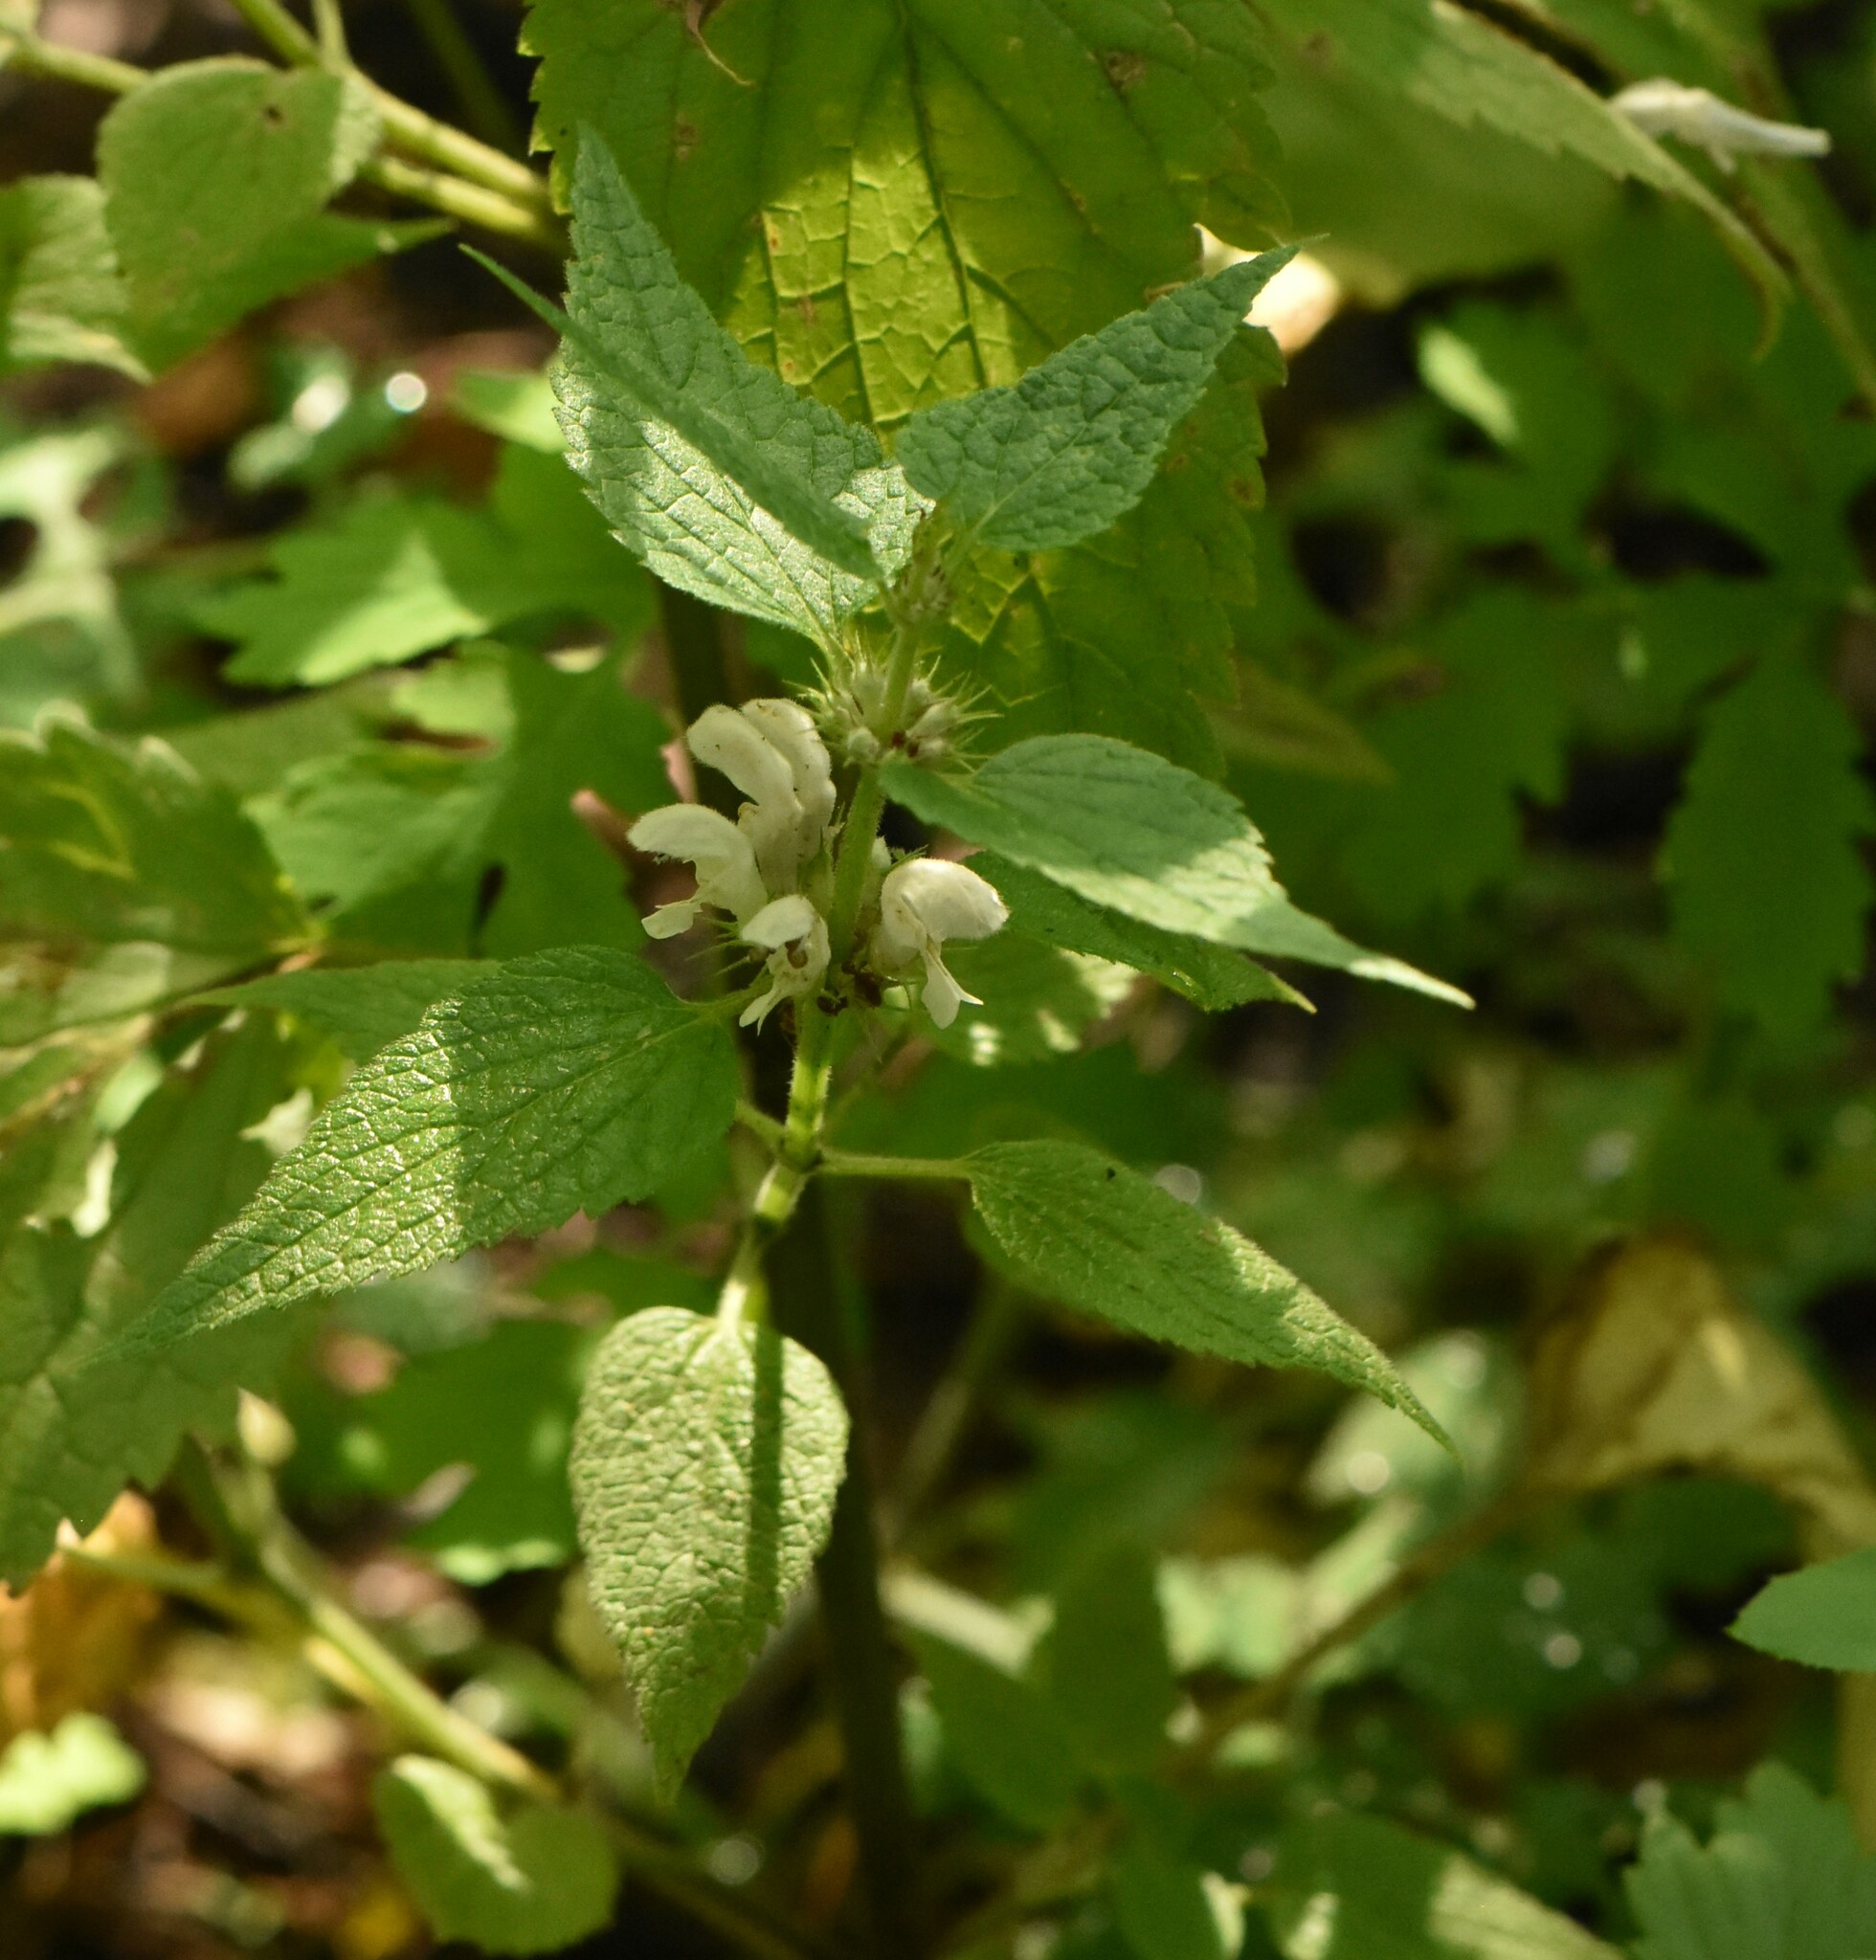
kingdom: Plantae
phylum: Tracheophyta
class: Magnoliopsida
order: Lamiales
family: Lamiaceae
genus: Lamium
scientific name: Lamium album
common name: White dead-nettle
